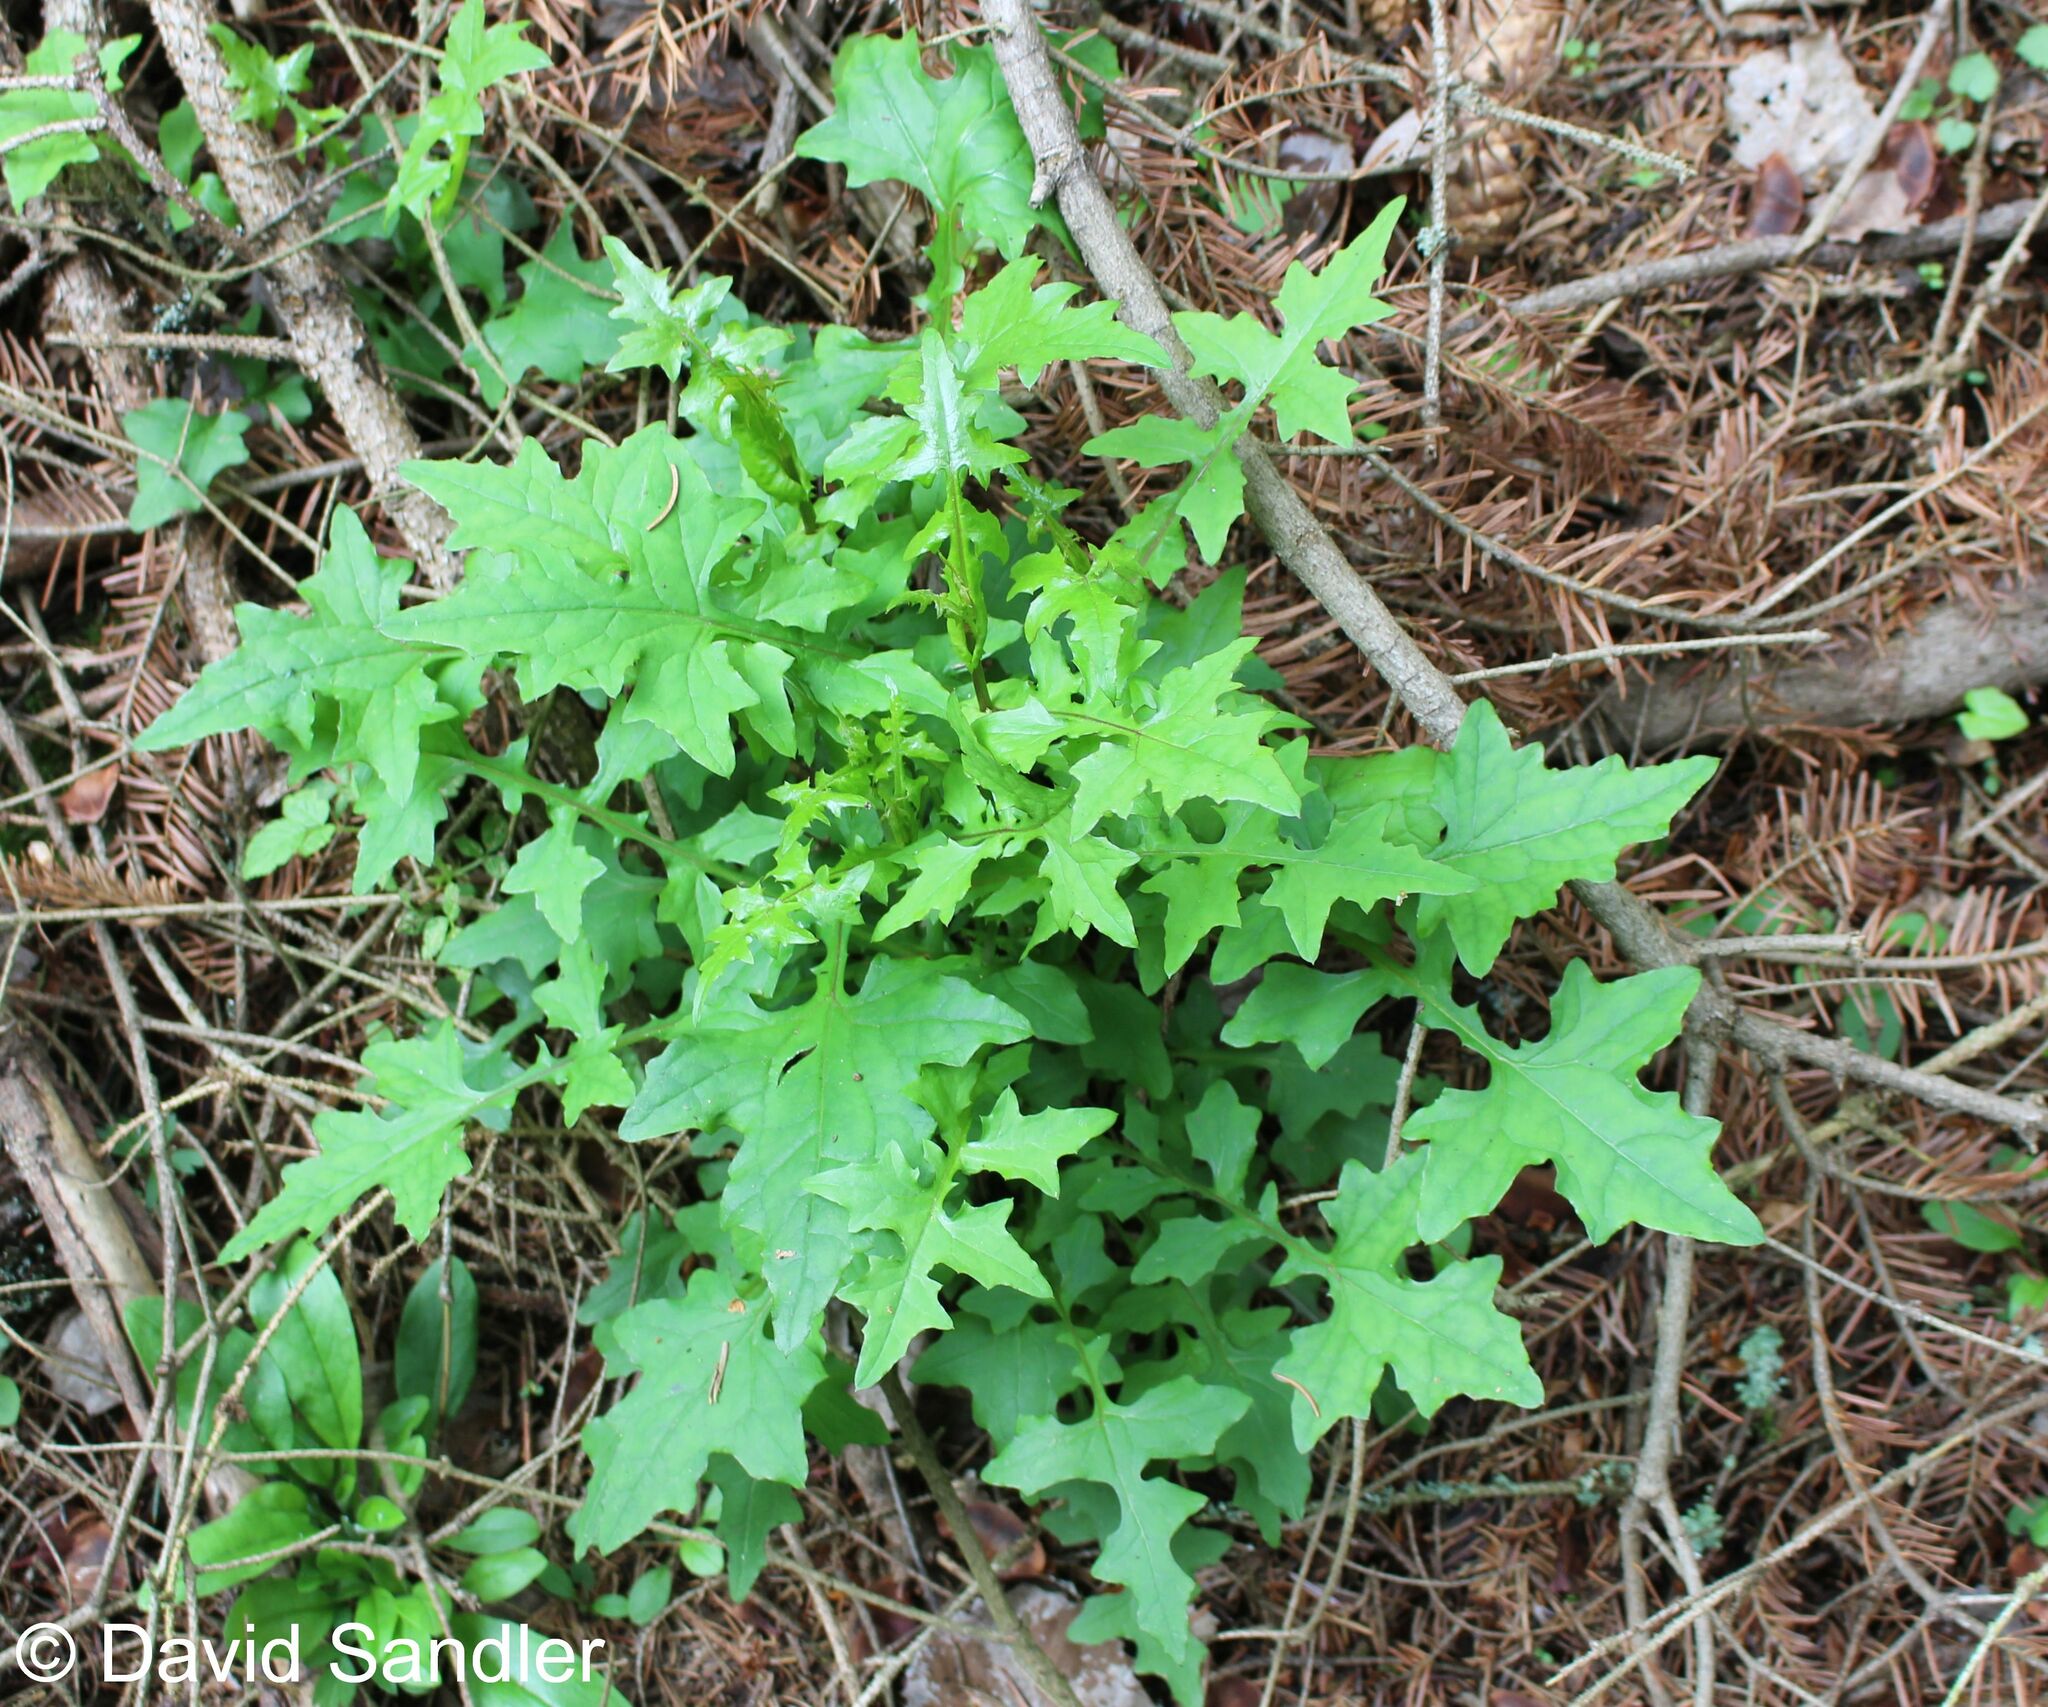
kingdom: Plantae
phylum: Tracheophyta
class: Magnoliopsida
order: Asterales
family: Asteraceae
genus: Mycelis
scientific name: Mycelis muralis
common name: Wall lettuce
